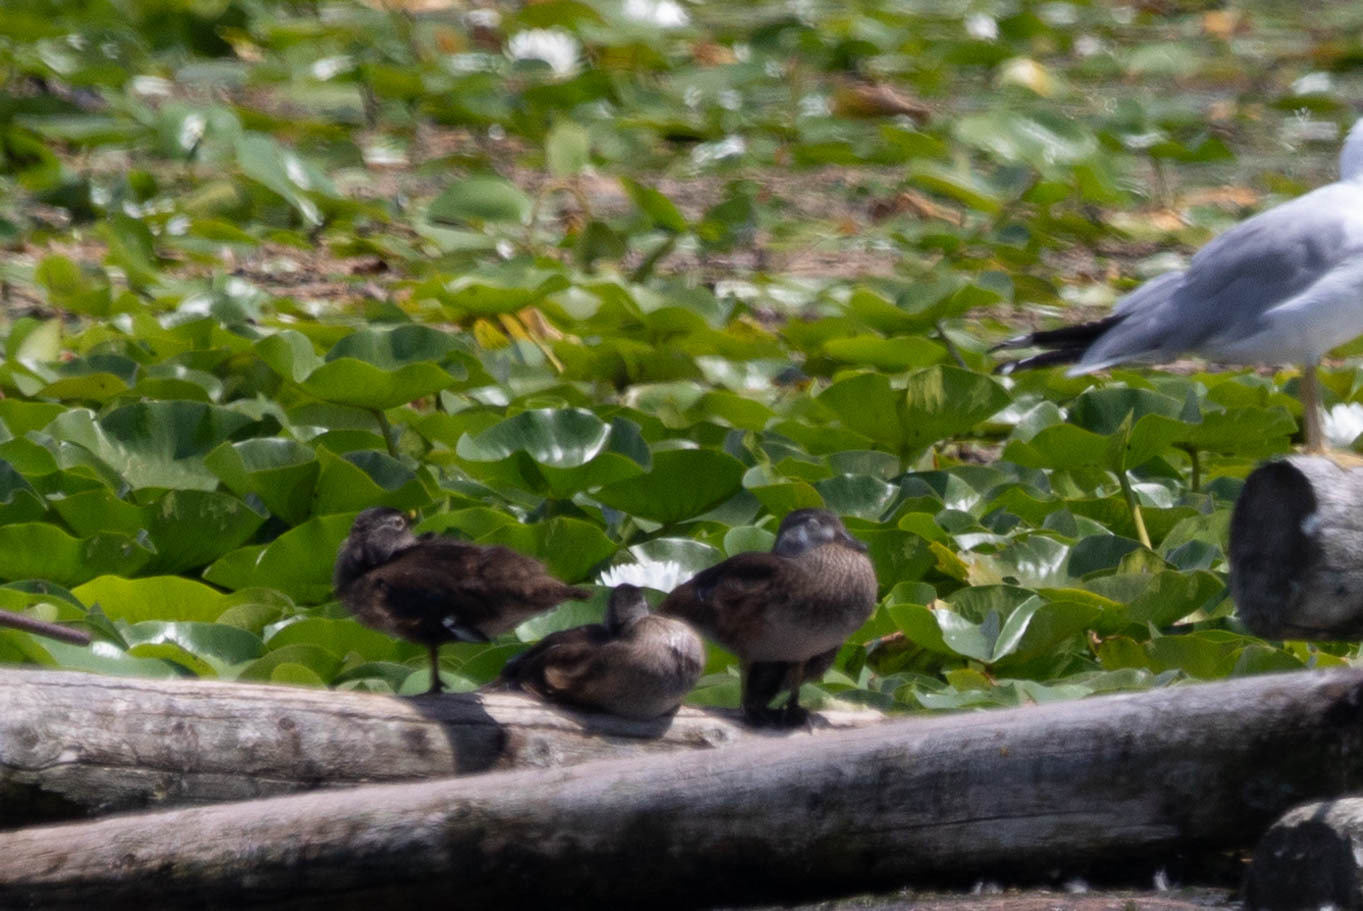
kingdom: Animalia
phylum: Chordata
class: Aves
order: Anseriformes
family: Anatidae
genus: Aix
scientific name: Aix sponsa
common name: Wood duck
